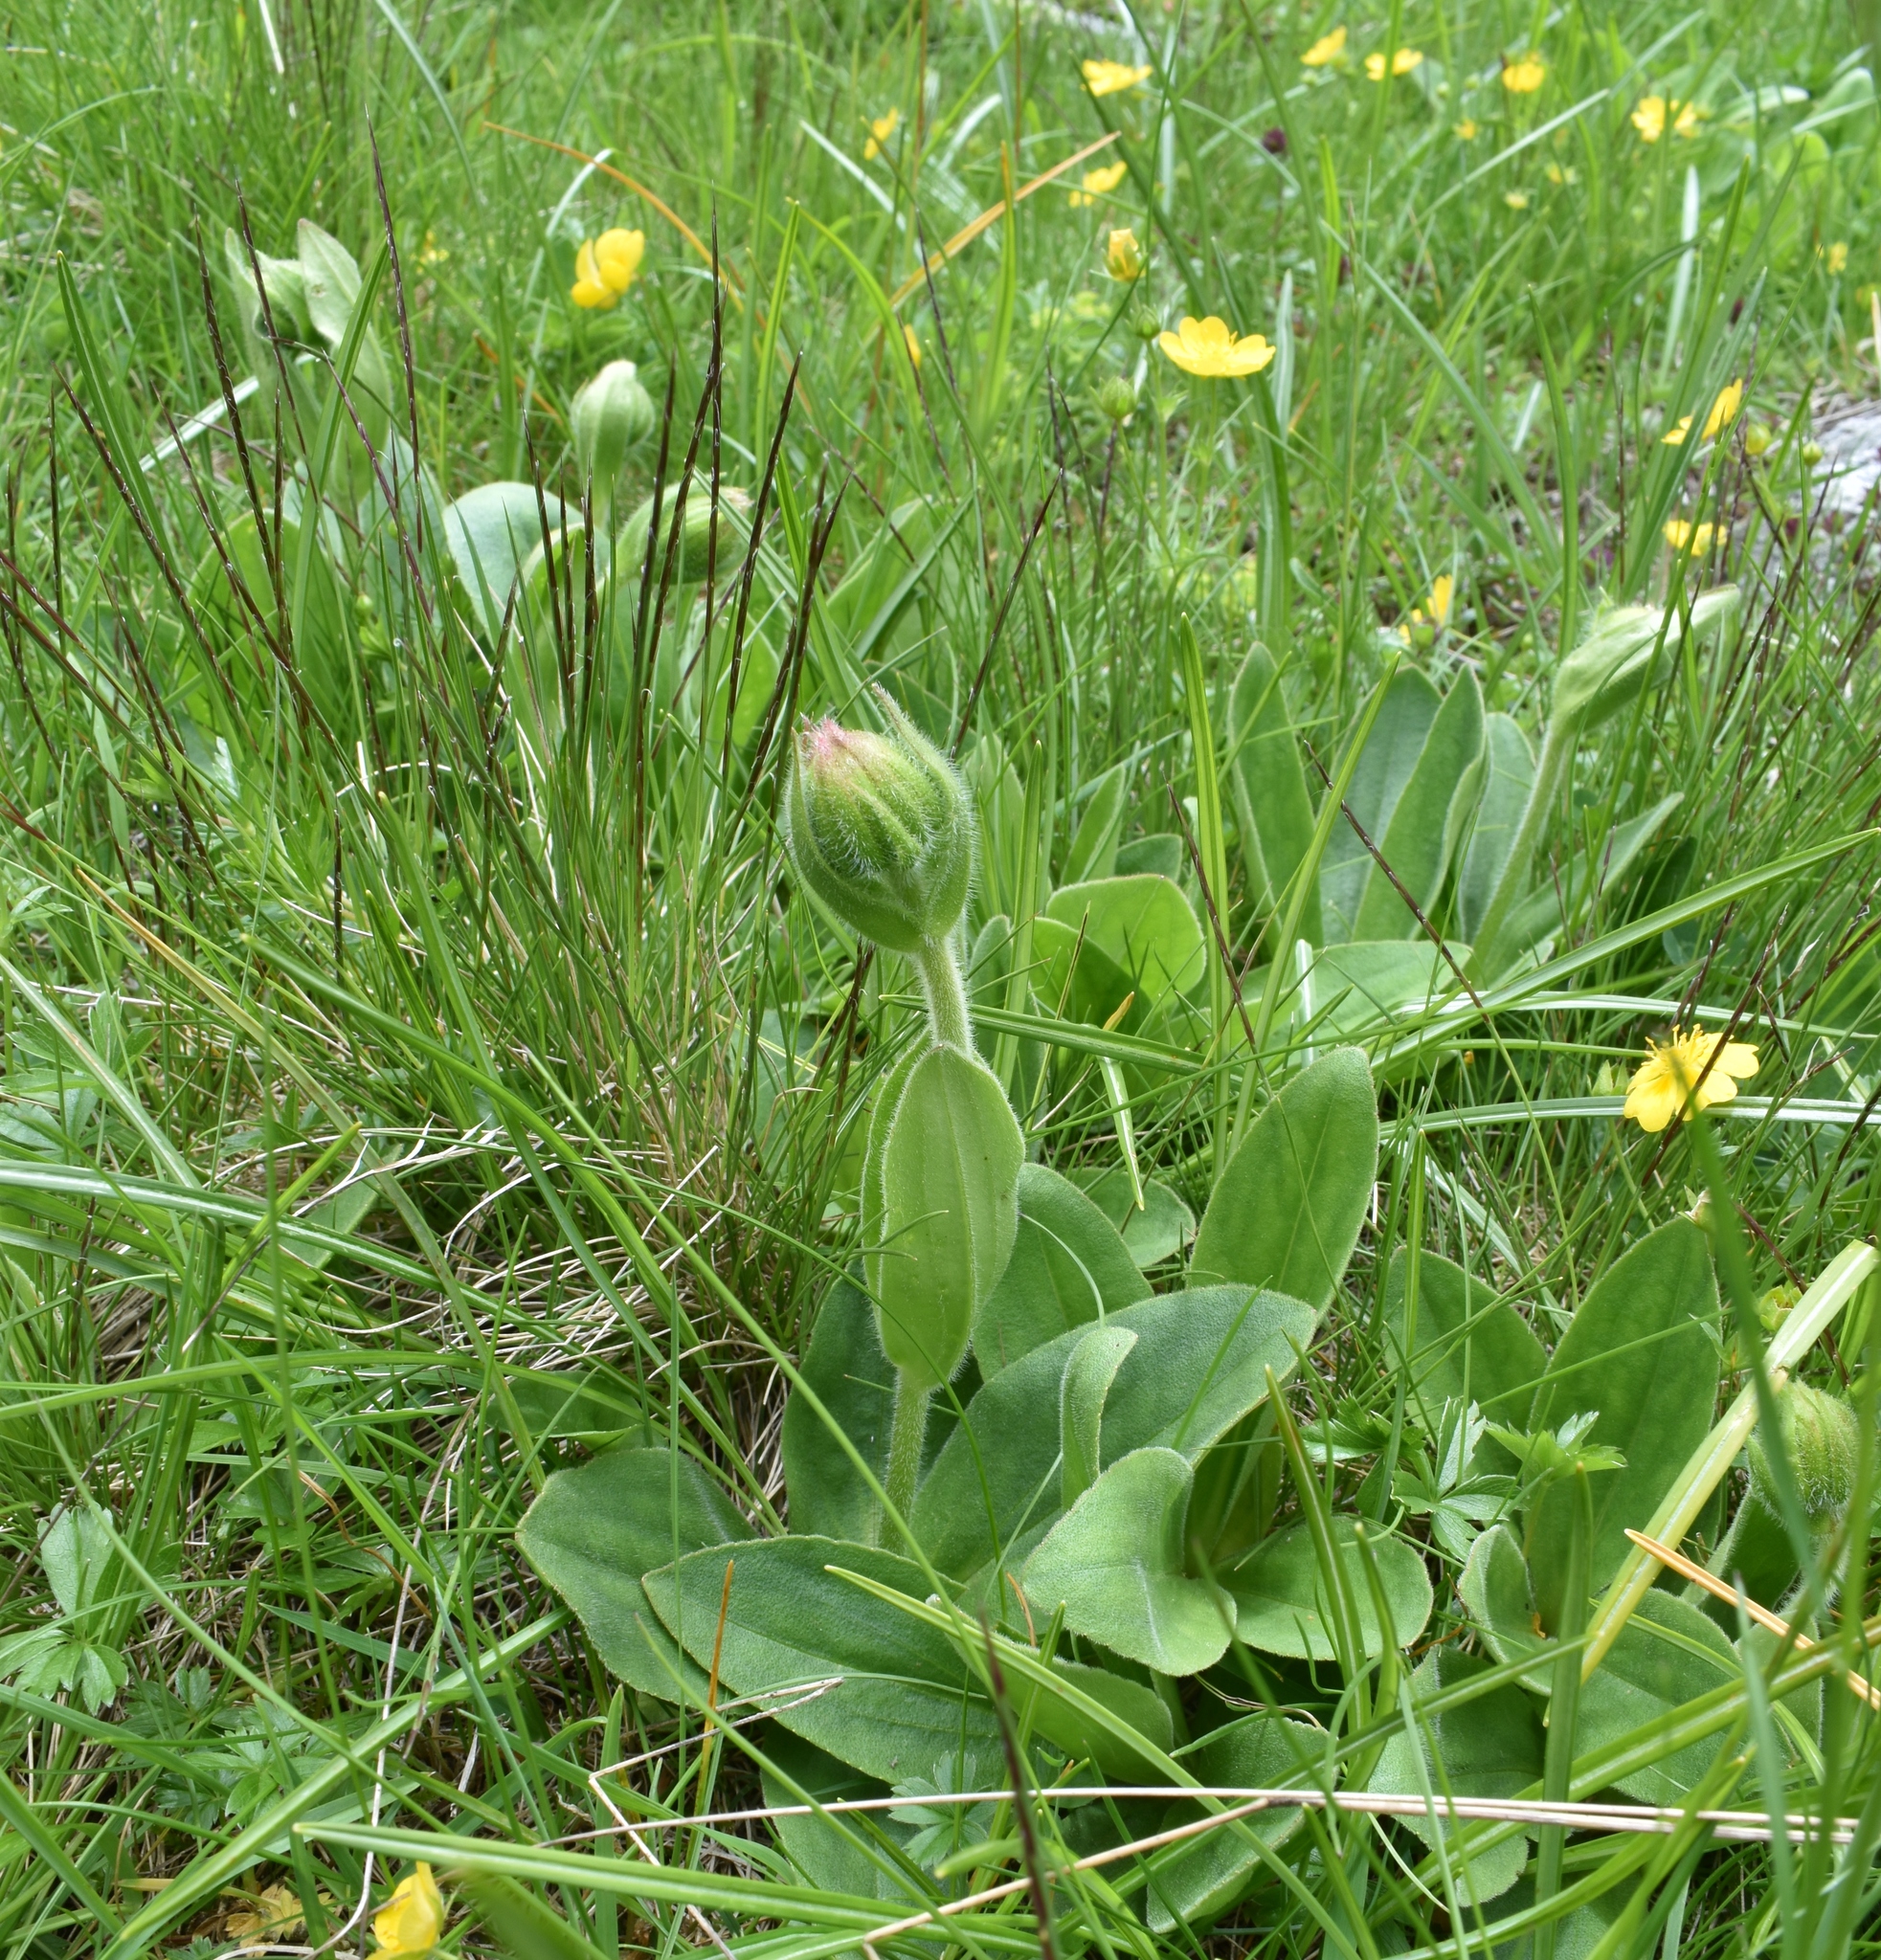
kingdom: Plantae
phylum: Tracheophyta
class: Magnoliopsida
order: Asterales
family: Asteraceae
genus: Arnica
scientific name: Arnica montana
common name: Leopard's bane
